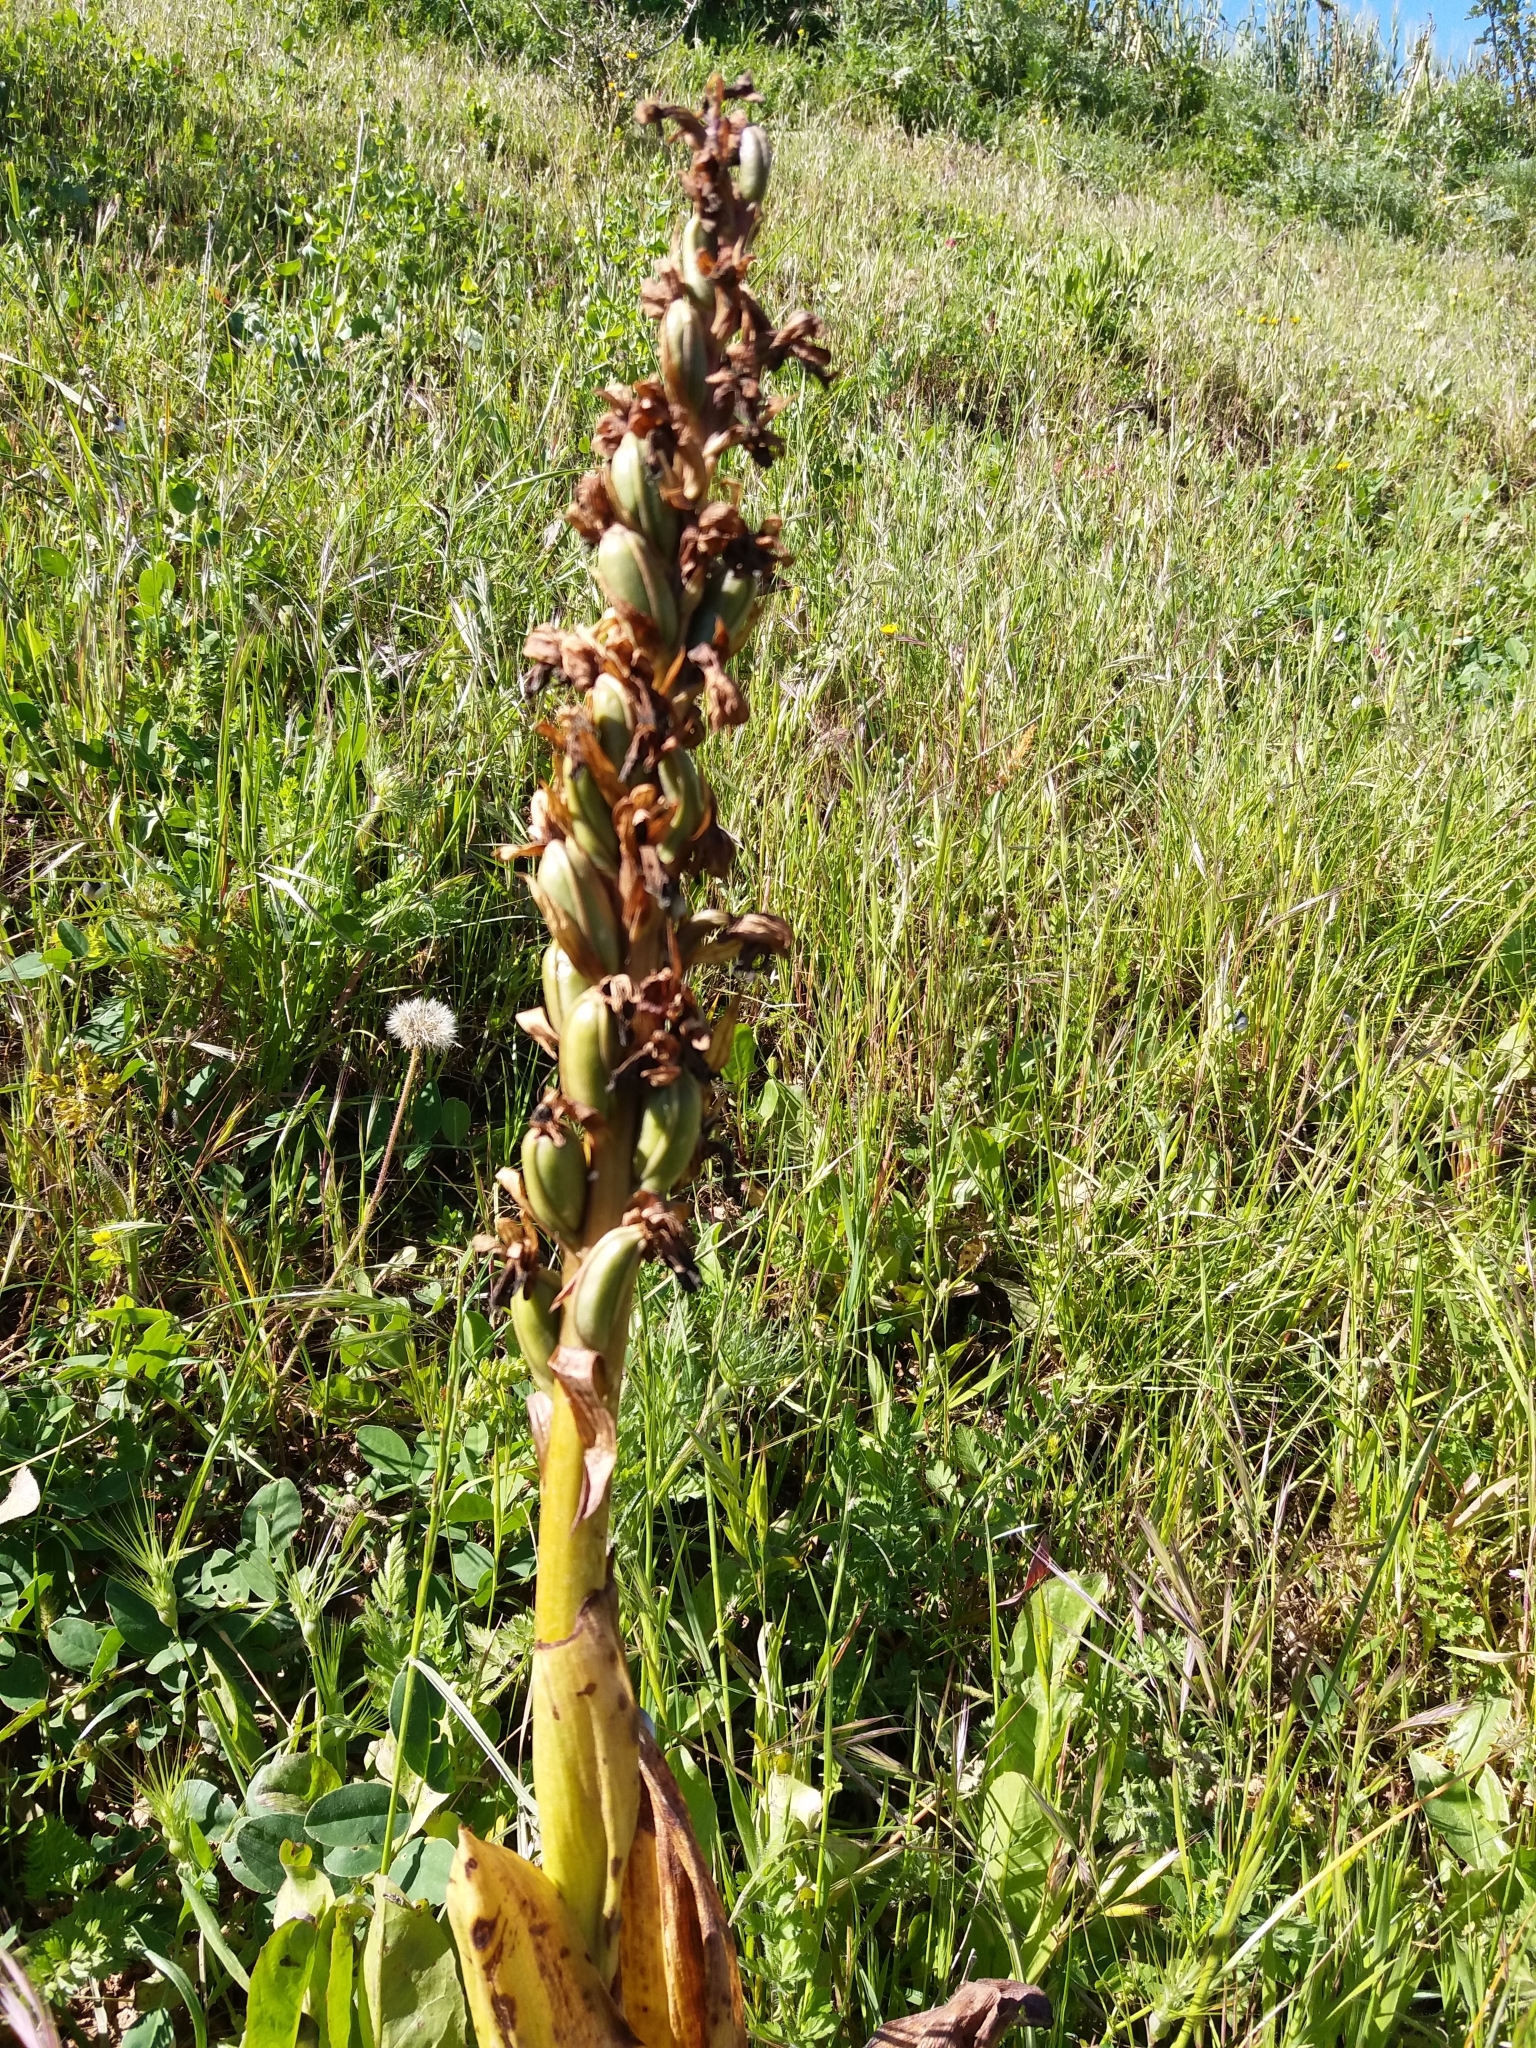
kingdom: Plantae
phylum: Tracheophyta
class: Liliopsida
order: Asparagales
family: Orchidaceae
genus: Himantoglossum
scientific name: Himantoglossum robertianum
